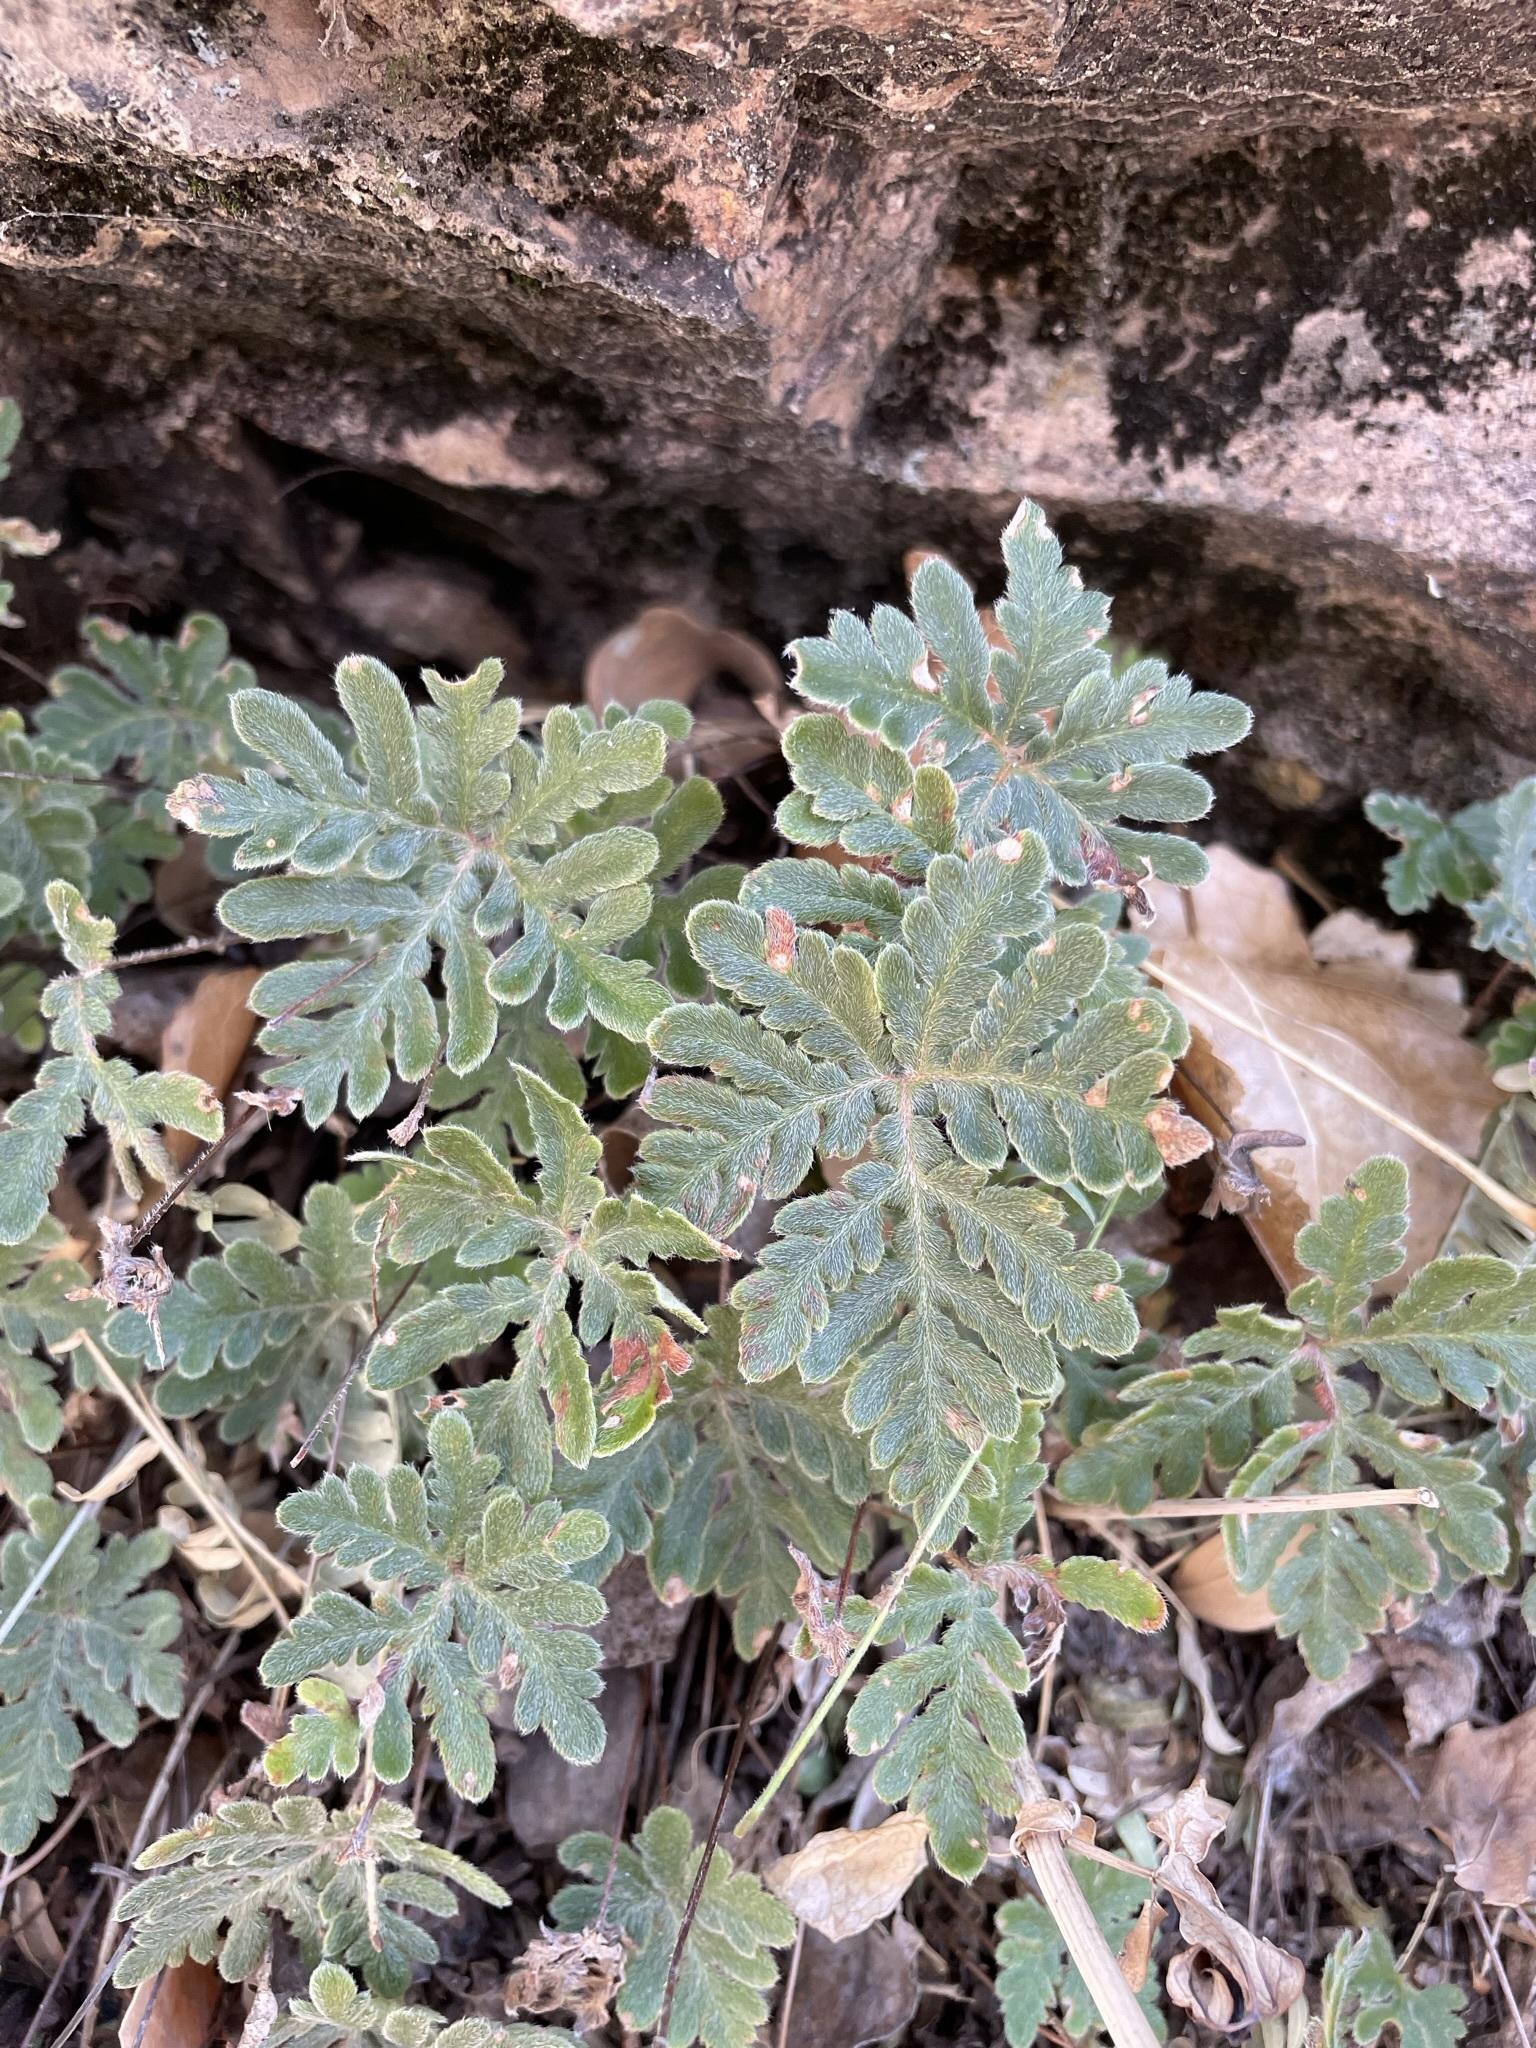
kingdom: Plantae
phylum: Tracheophyta
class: Polypodiopsida
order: Polypodiales
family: Pteridaceae
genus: Bommeria
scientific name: Bommeria hispida
